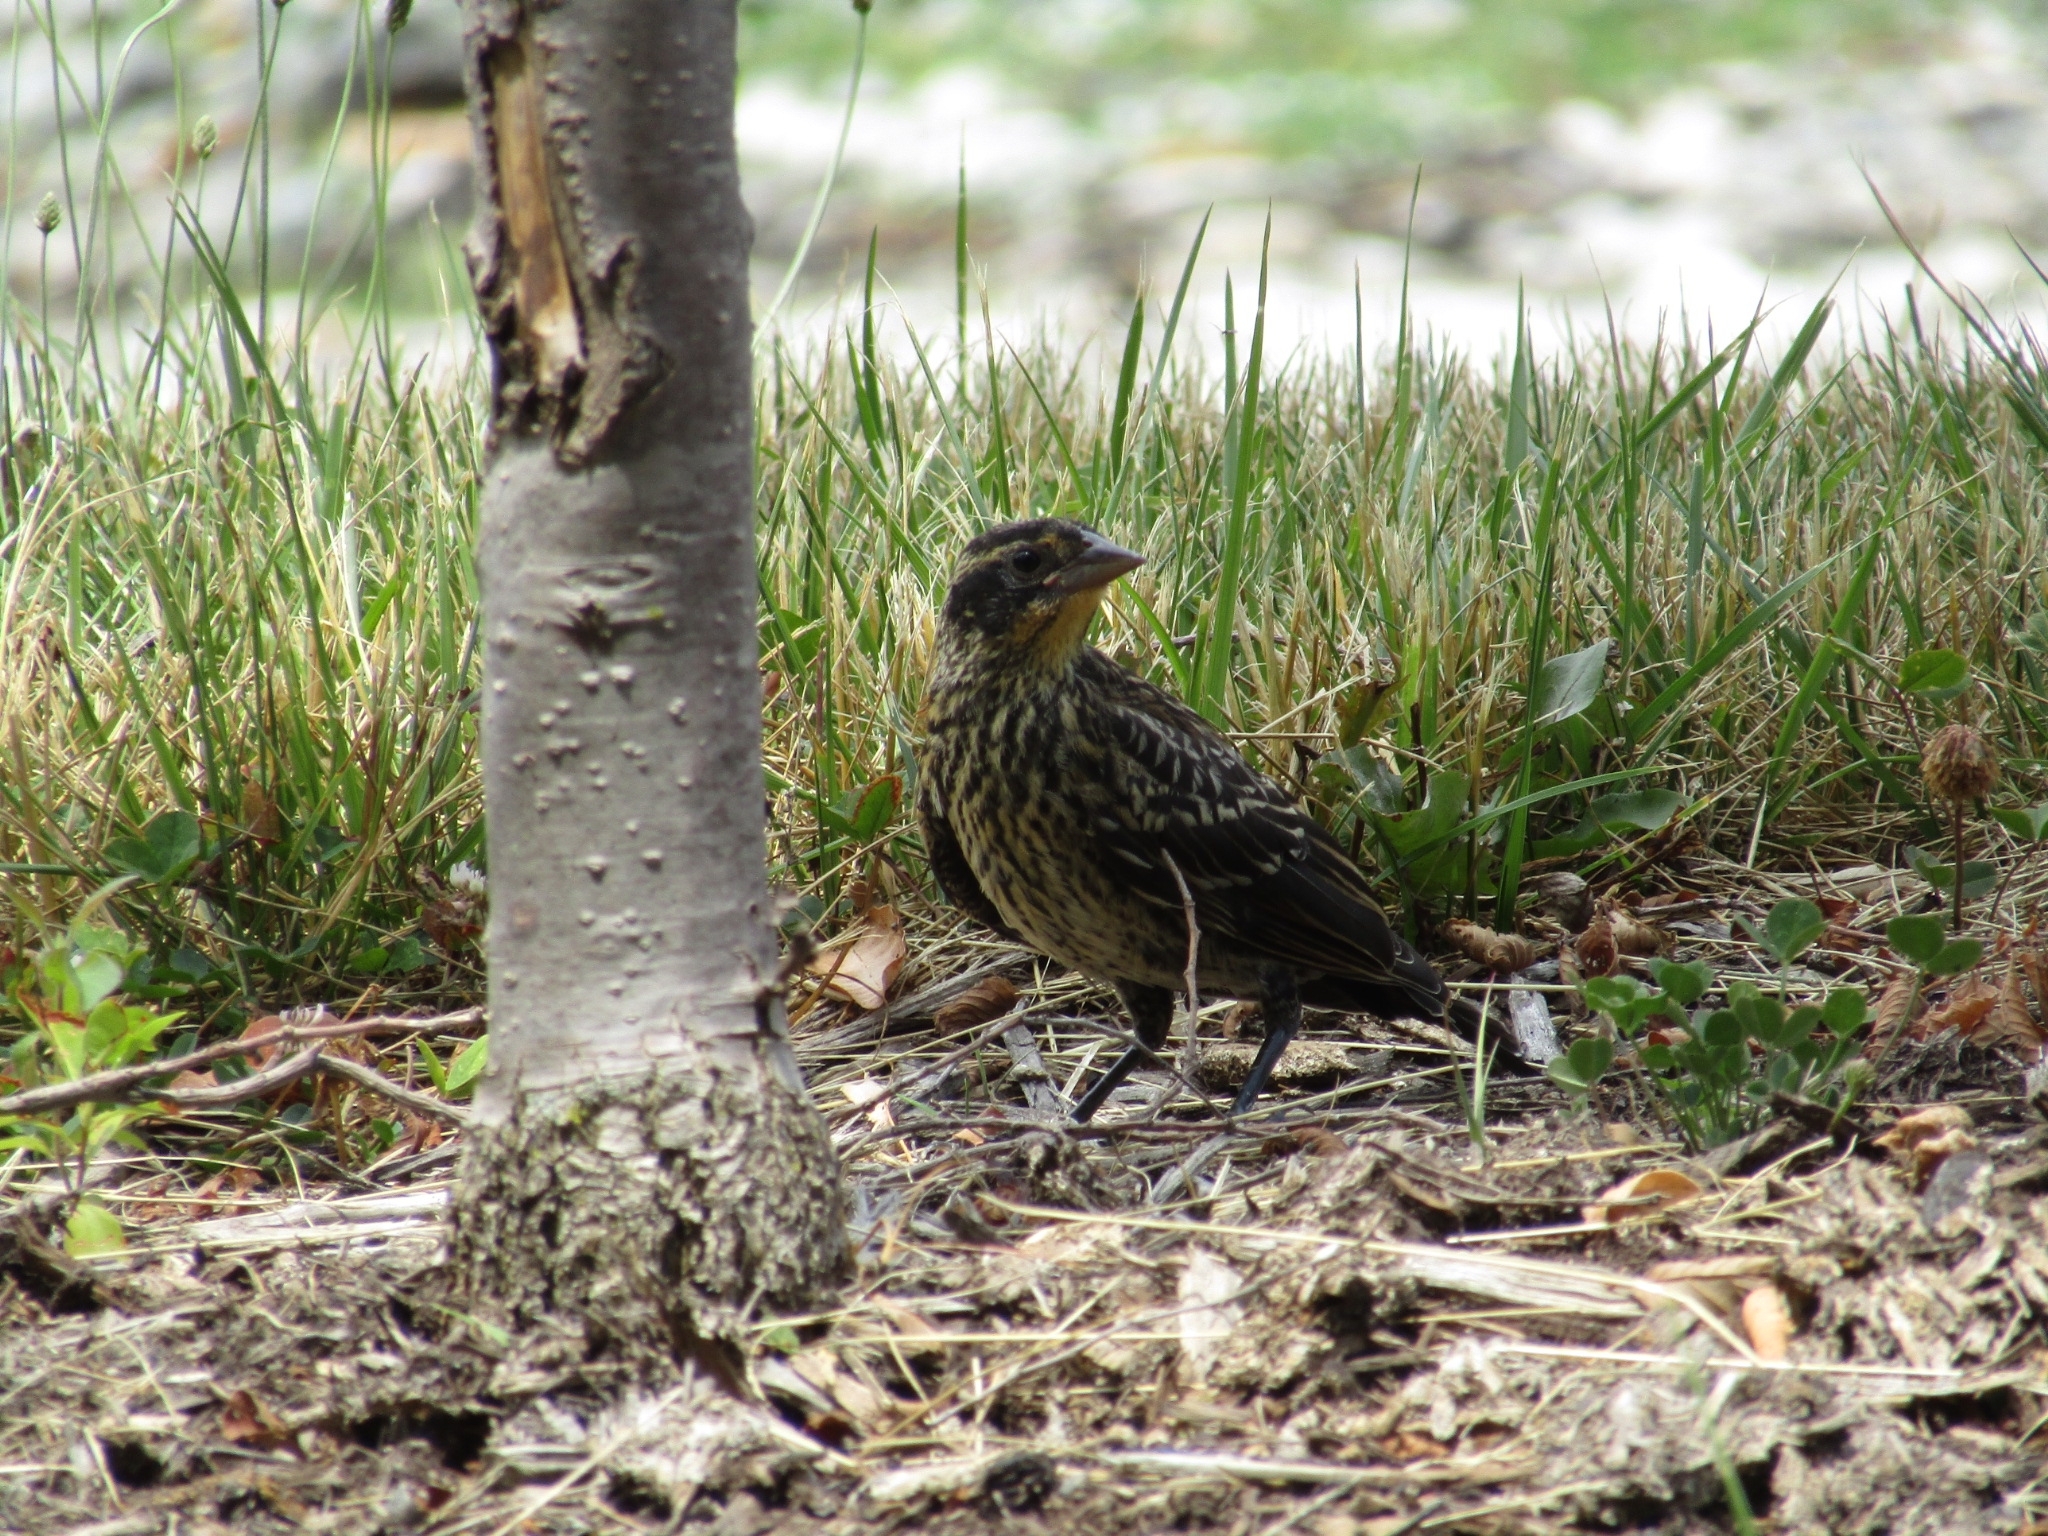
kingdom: Animalia
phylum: Chordata
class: Aves
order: Passeriformes
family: Icteridae
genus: Agelaius
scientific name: Agelaius phoeniceus
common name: Red-winged blackbird
